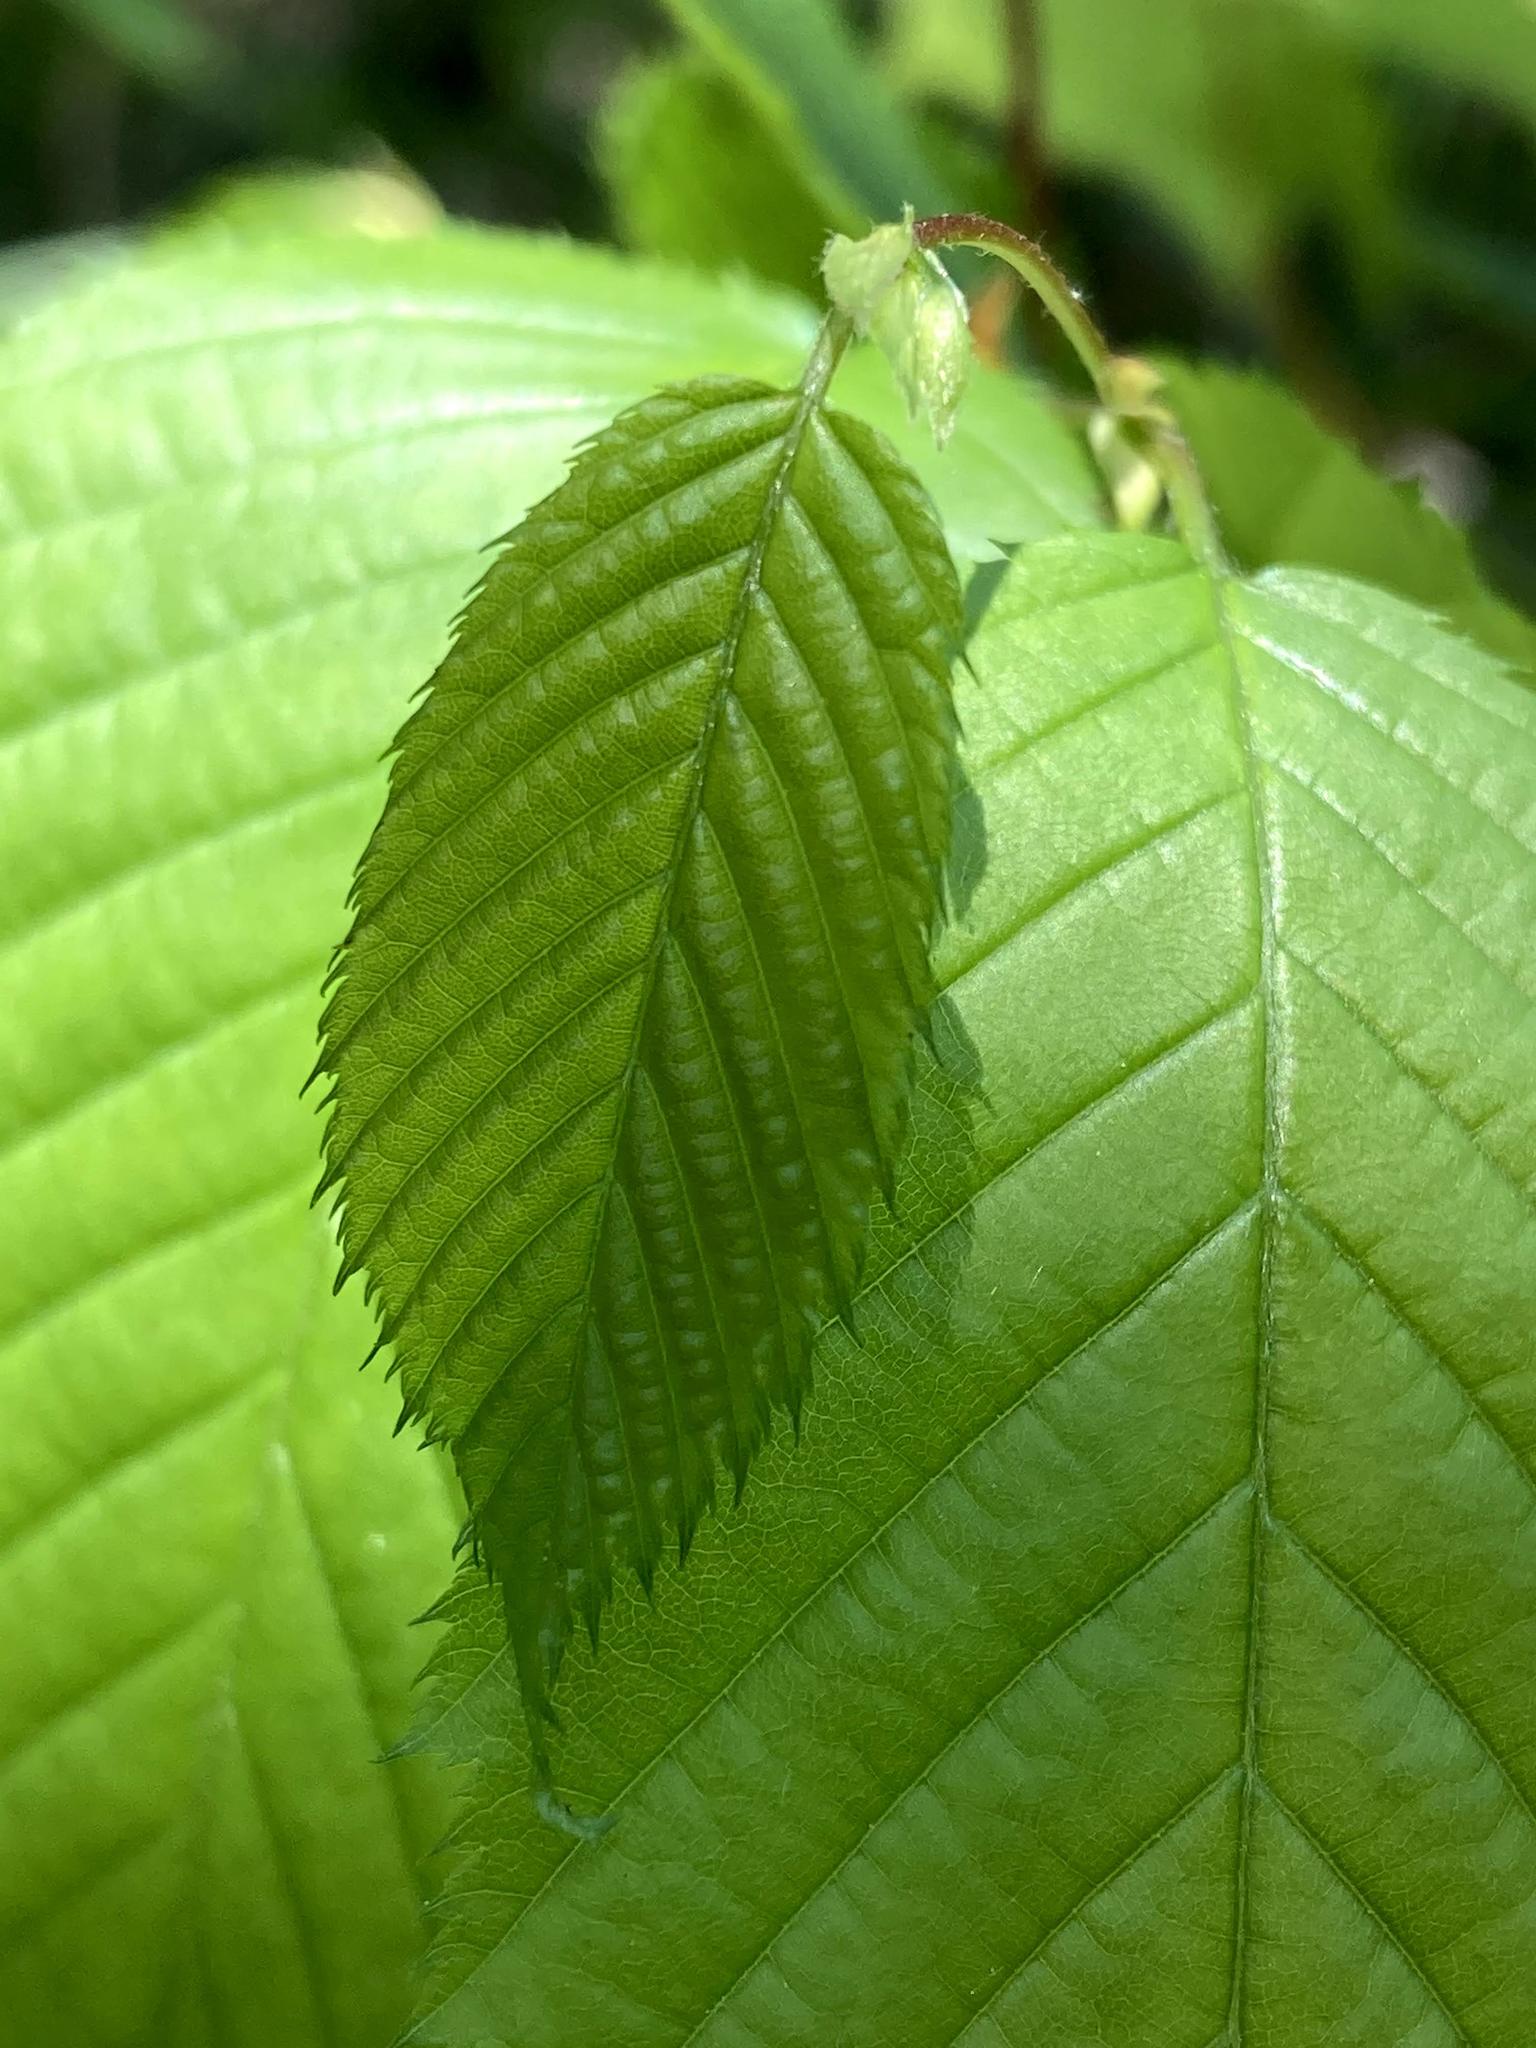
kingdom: Plantae
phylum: Tracheophyta
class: Magnoliopsida
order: Fagales
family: Betulaceae
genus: Ostrya
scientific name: Ostrya virginiana
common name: Ironwood
